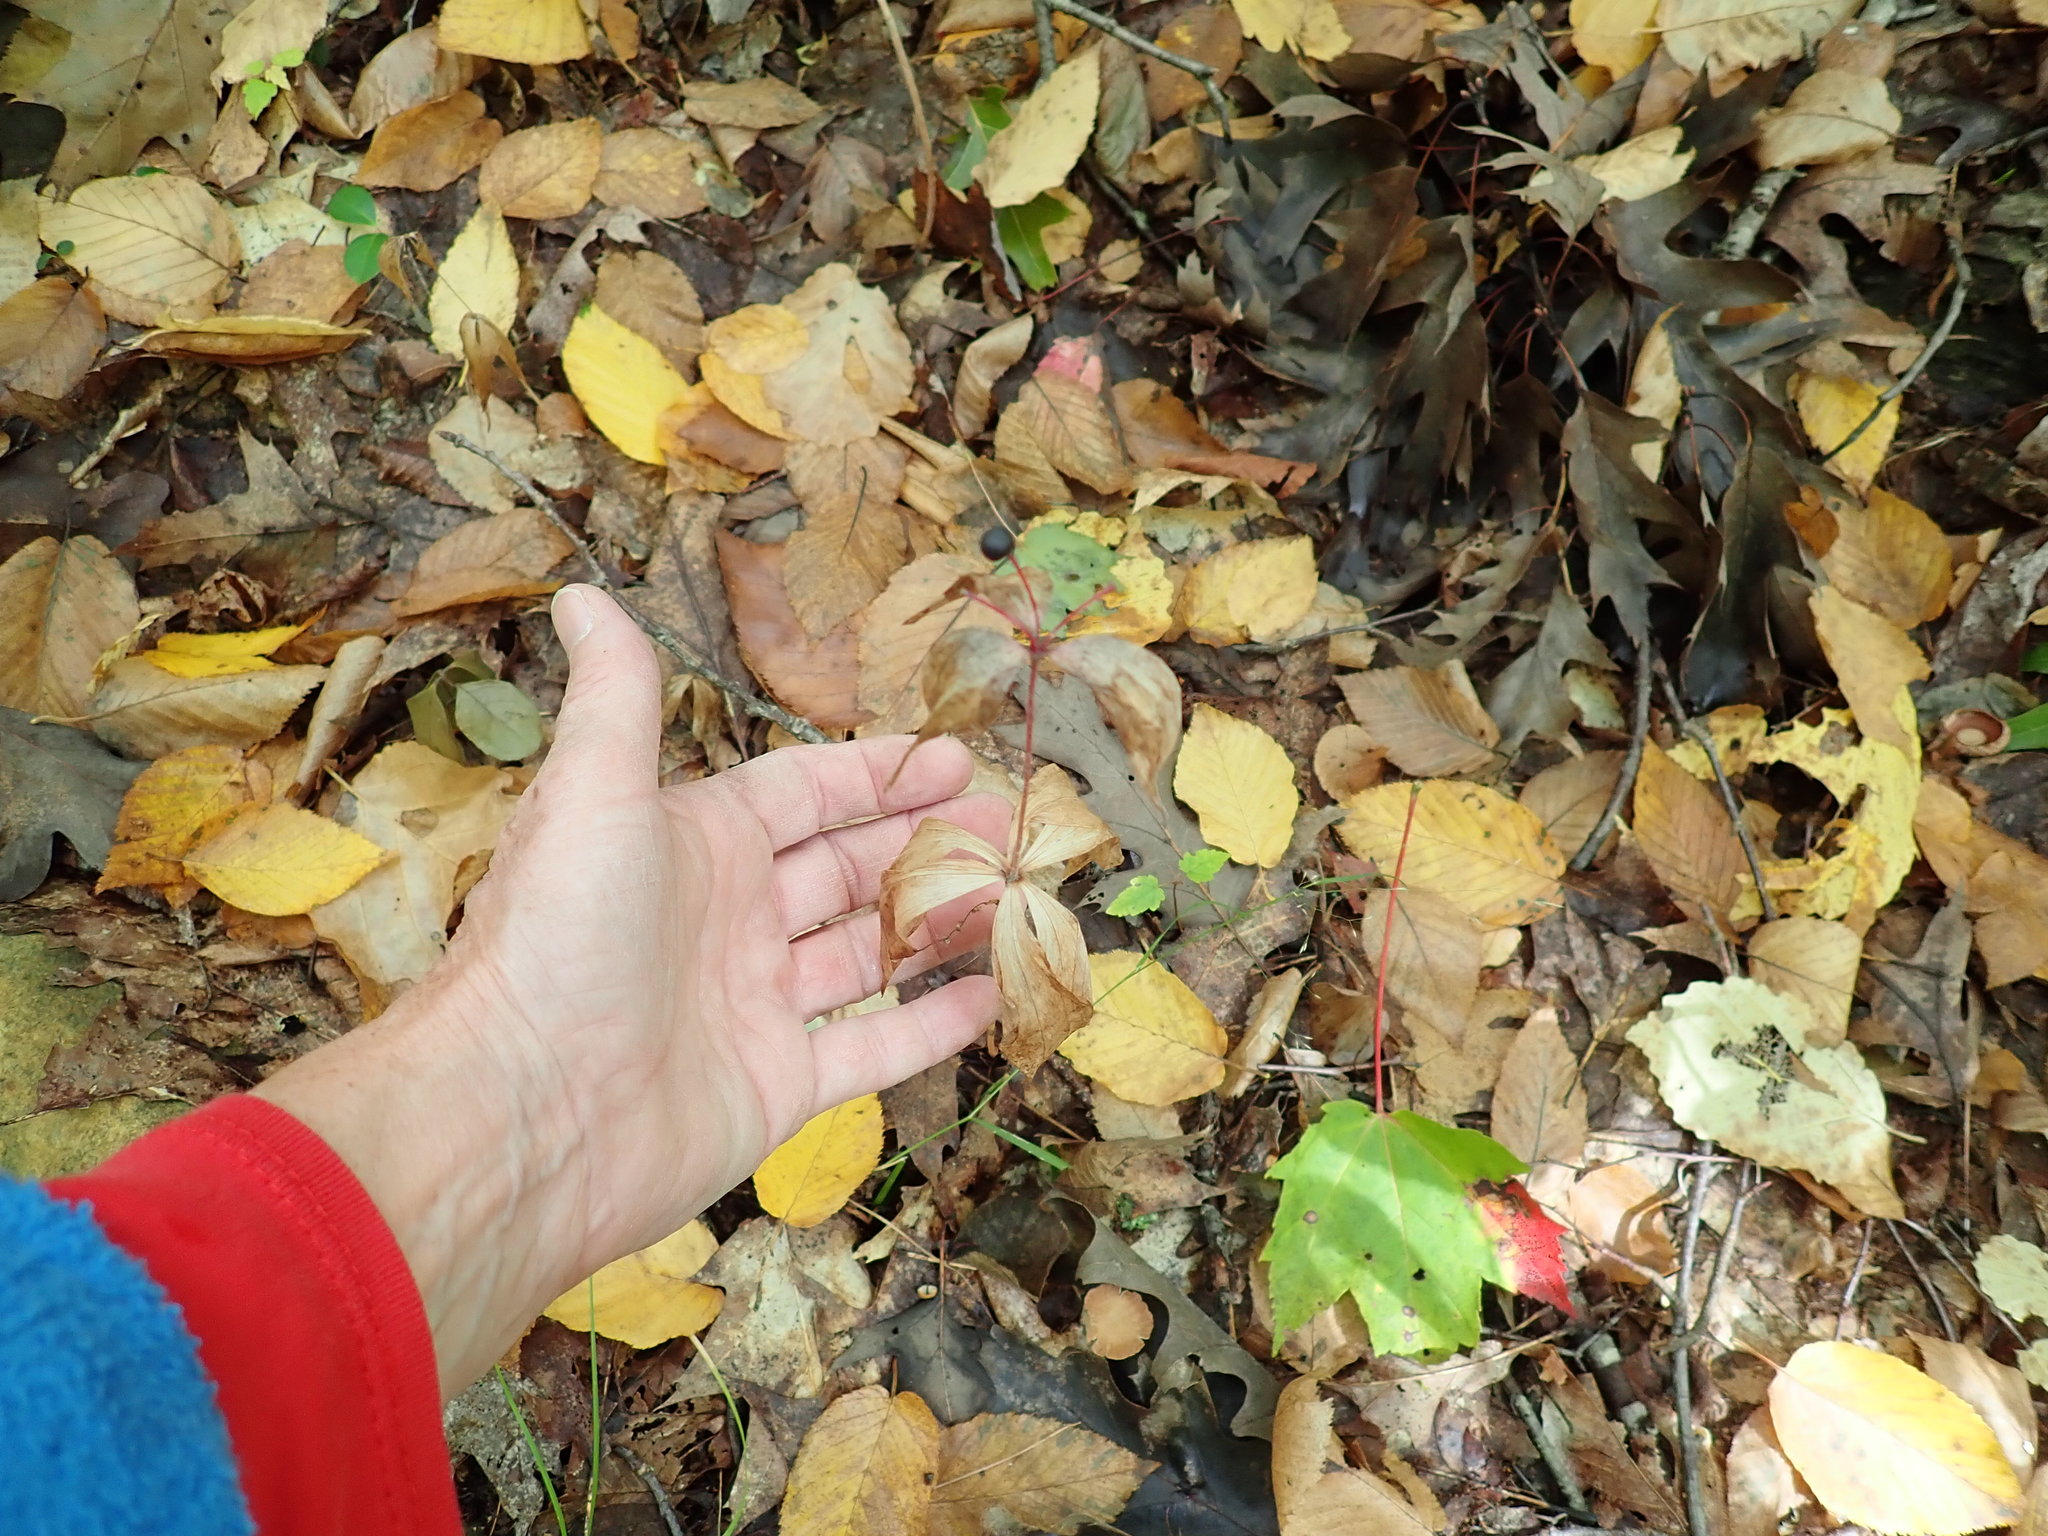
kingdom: Plantae
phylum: Tracheophyta
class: Liliopsida
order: Liliales
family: Liliaceae
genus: Medeola
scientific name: Medeola virginiana
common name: Indian cucumber-root
